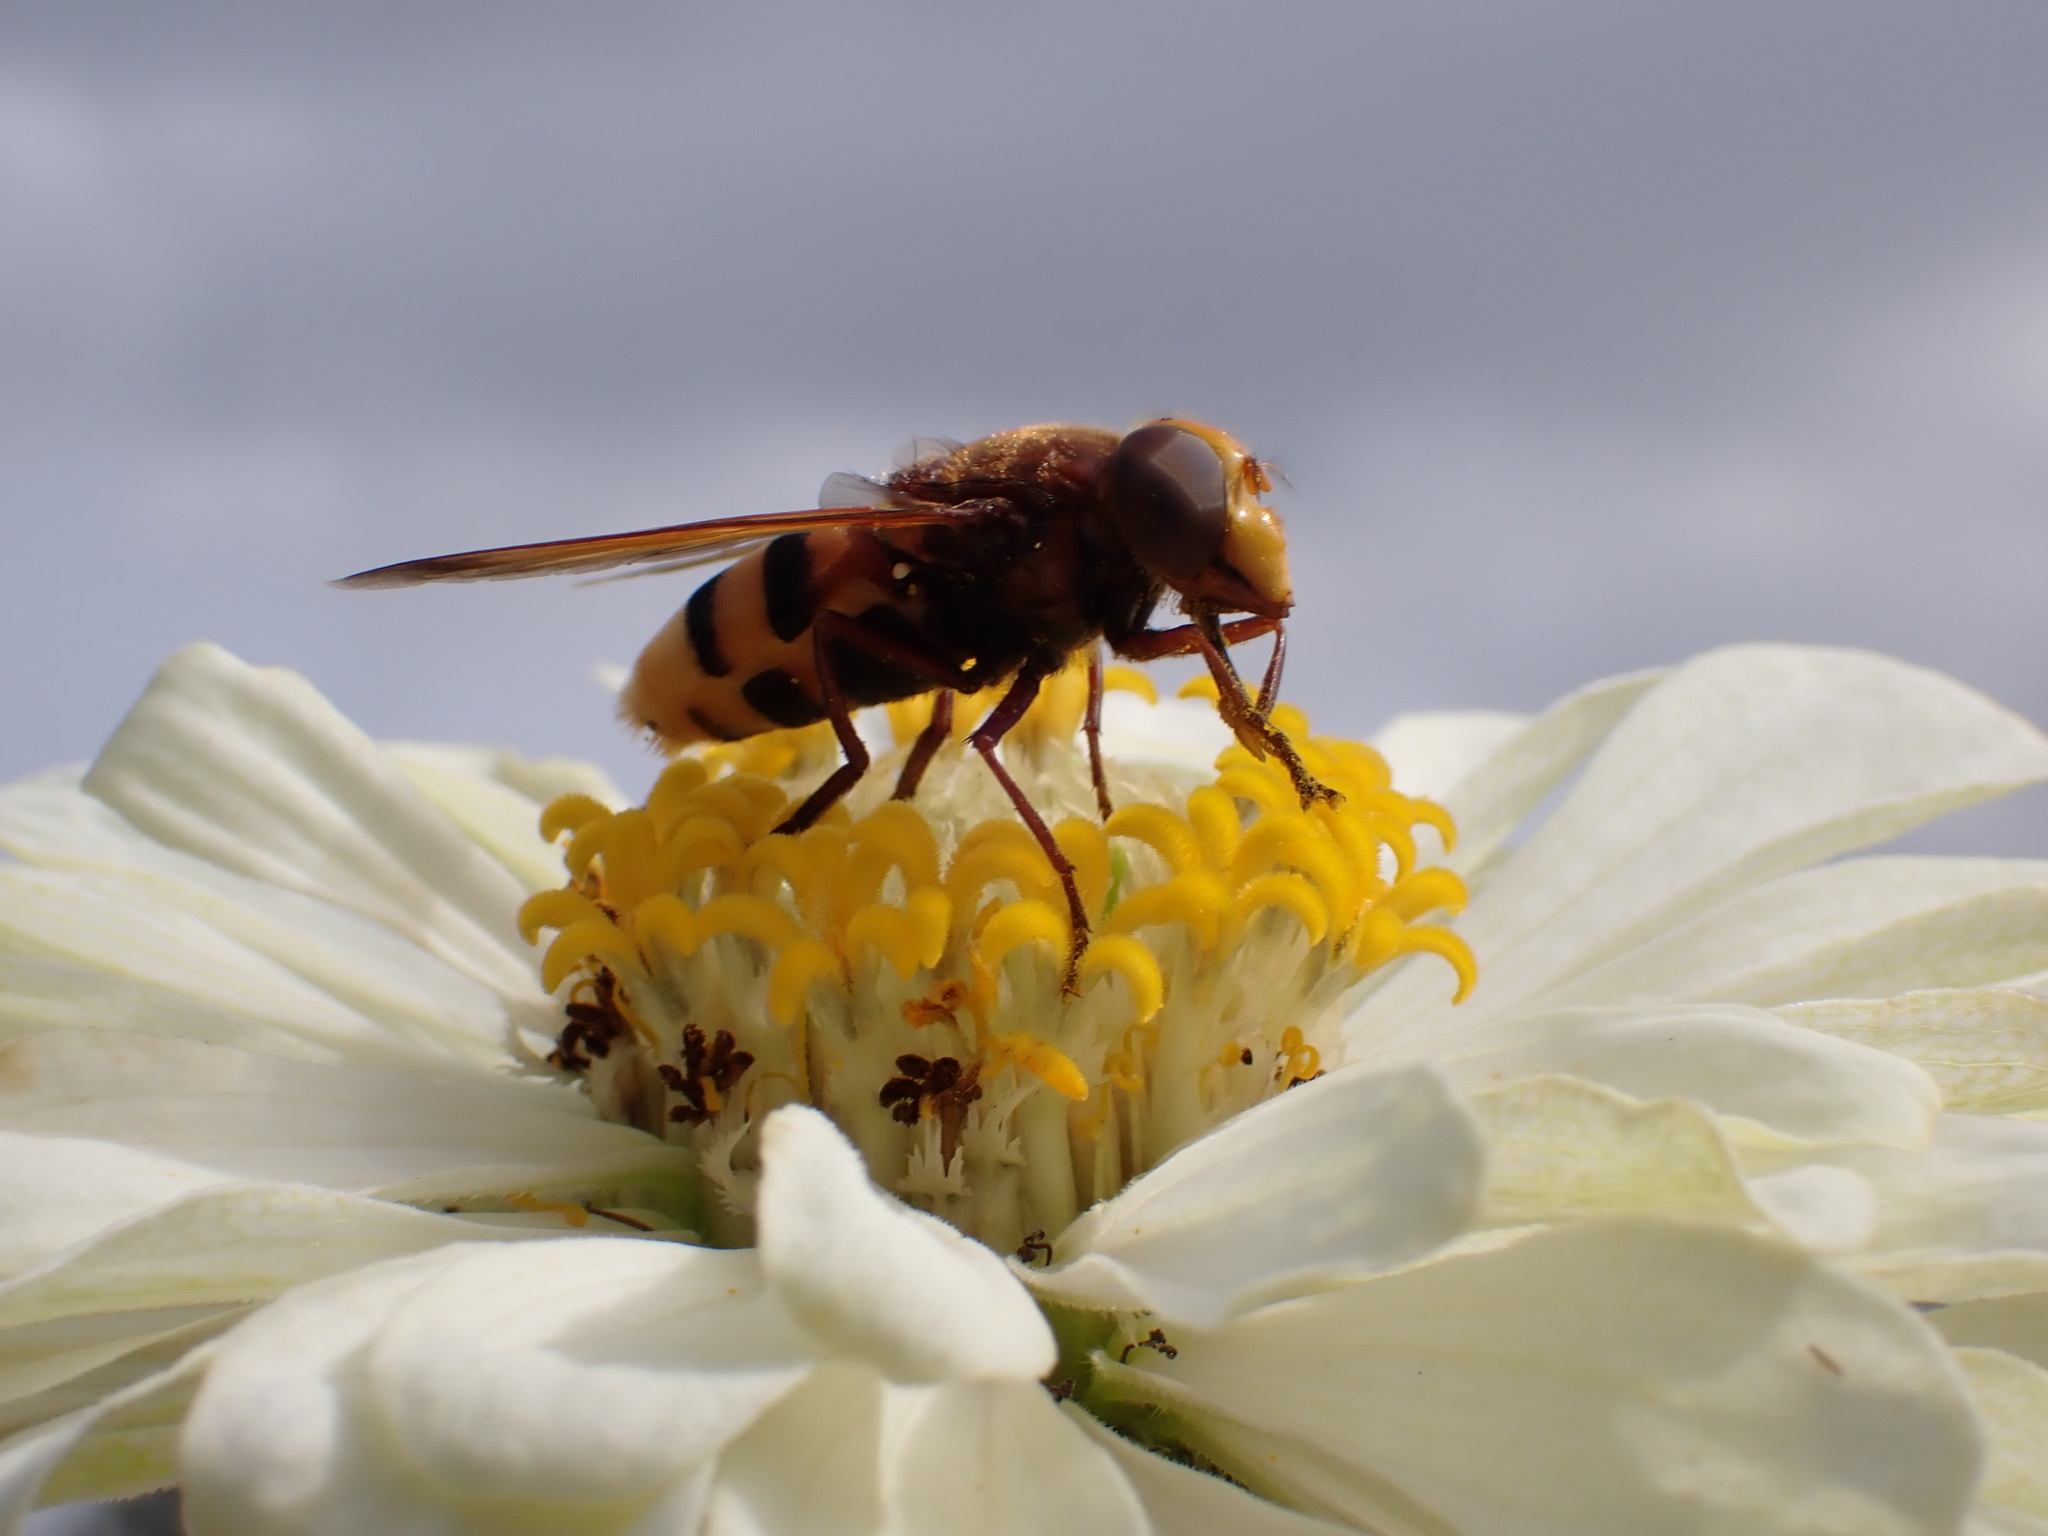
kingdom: Animalia
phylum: Arthropoda
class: Insecta
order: Diptera
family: Syrphidae
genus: Volucella
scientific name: Volucella zonaria
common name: Hornet hoverfly
